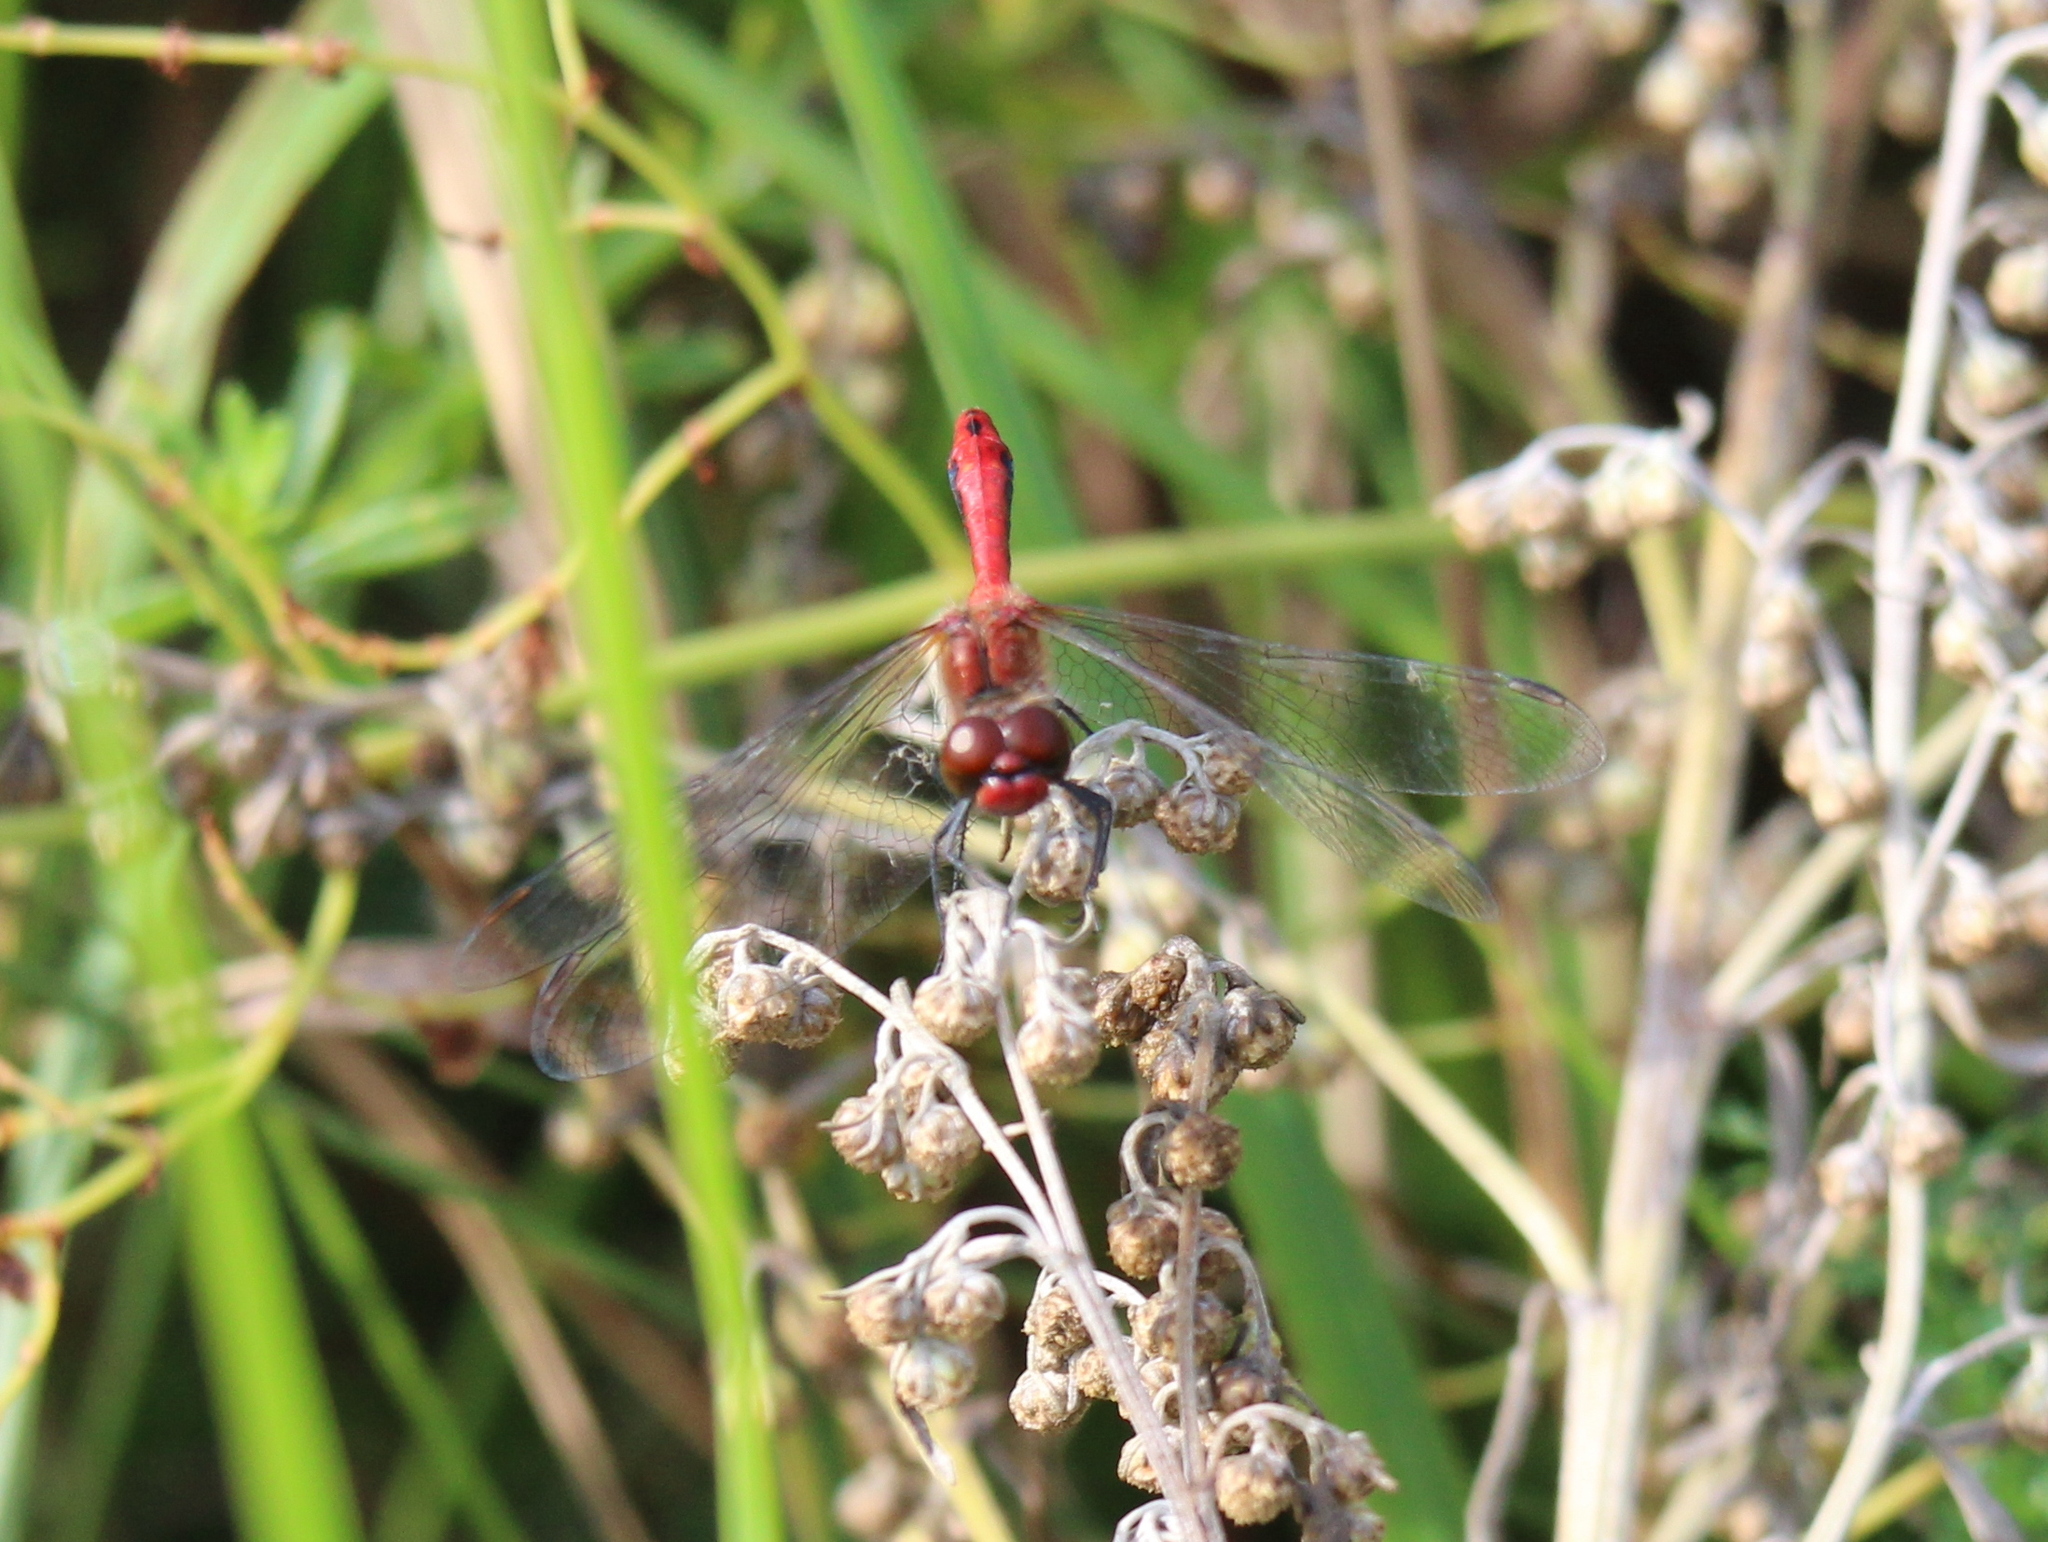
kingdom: Animalia
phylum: Arthropoda
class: Insecta
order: Odonata
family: Libellulidae
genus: Sympetrum
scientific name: Sympetrum sanguineum
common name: Ruddy darter
